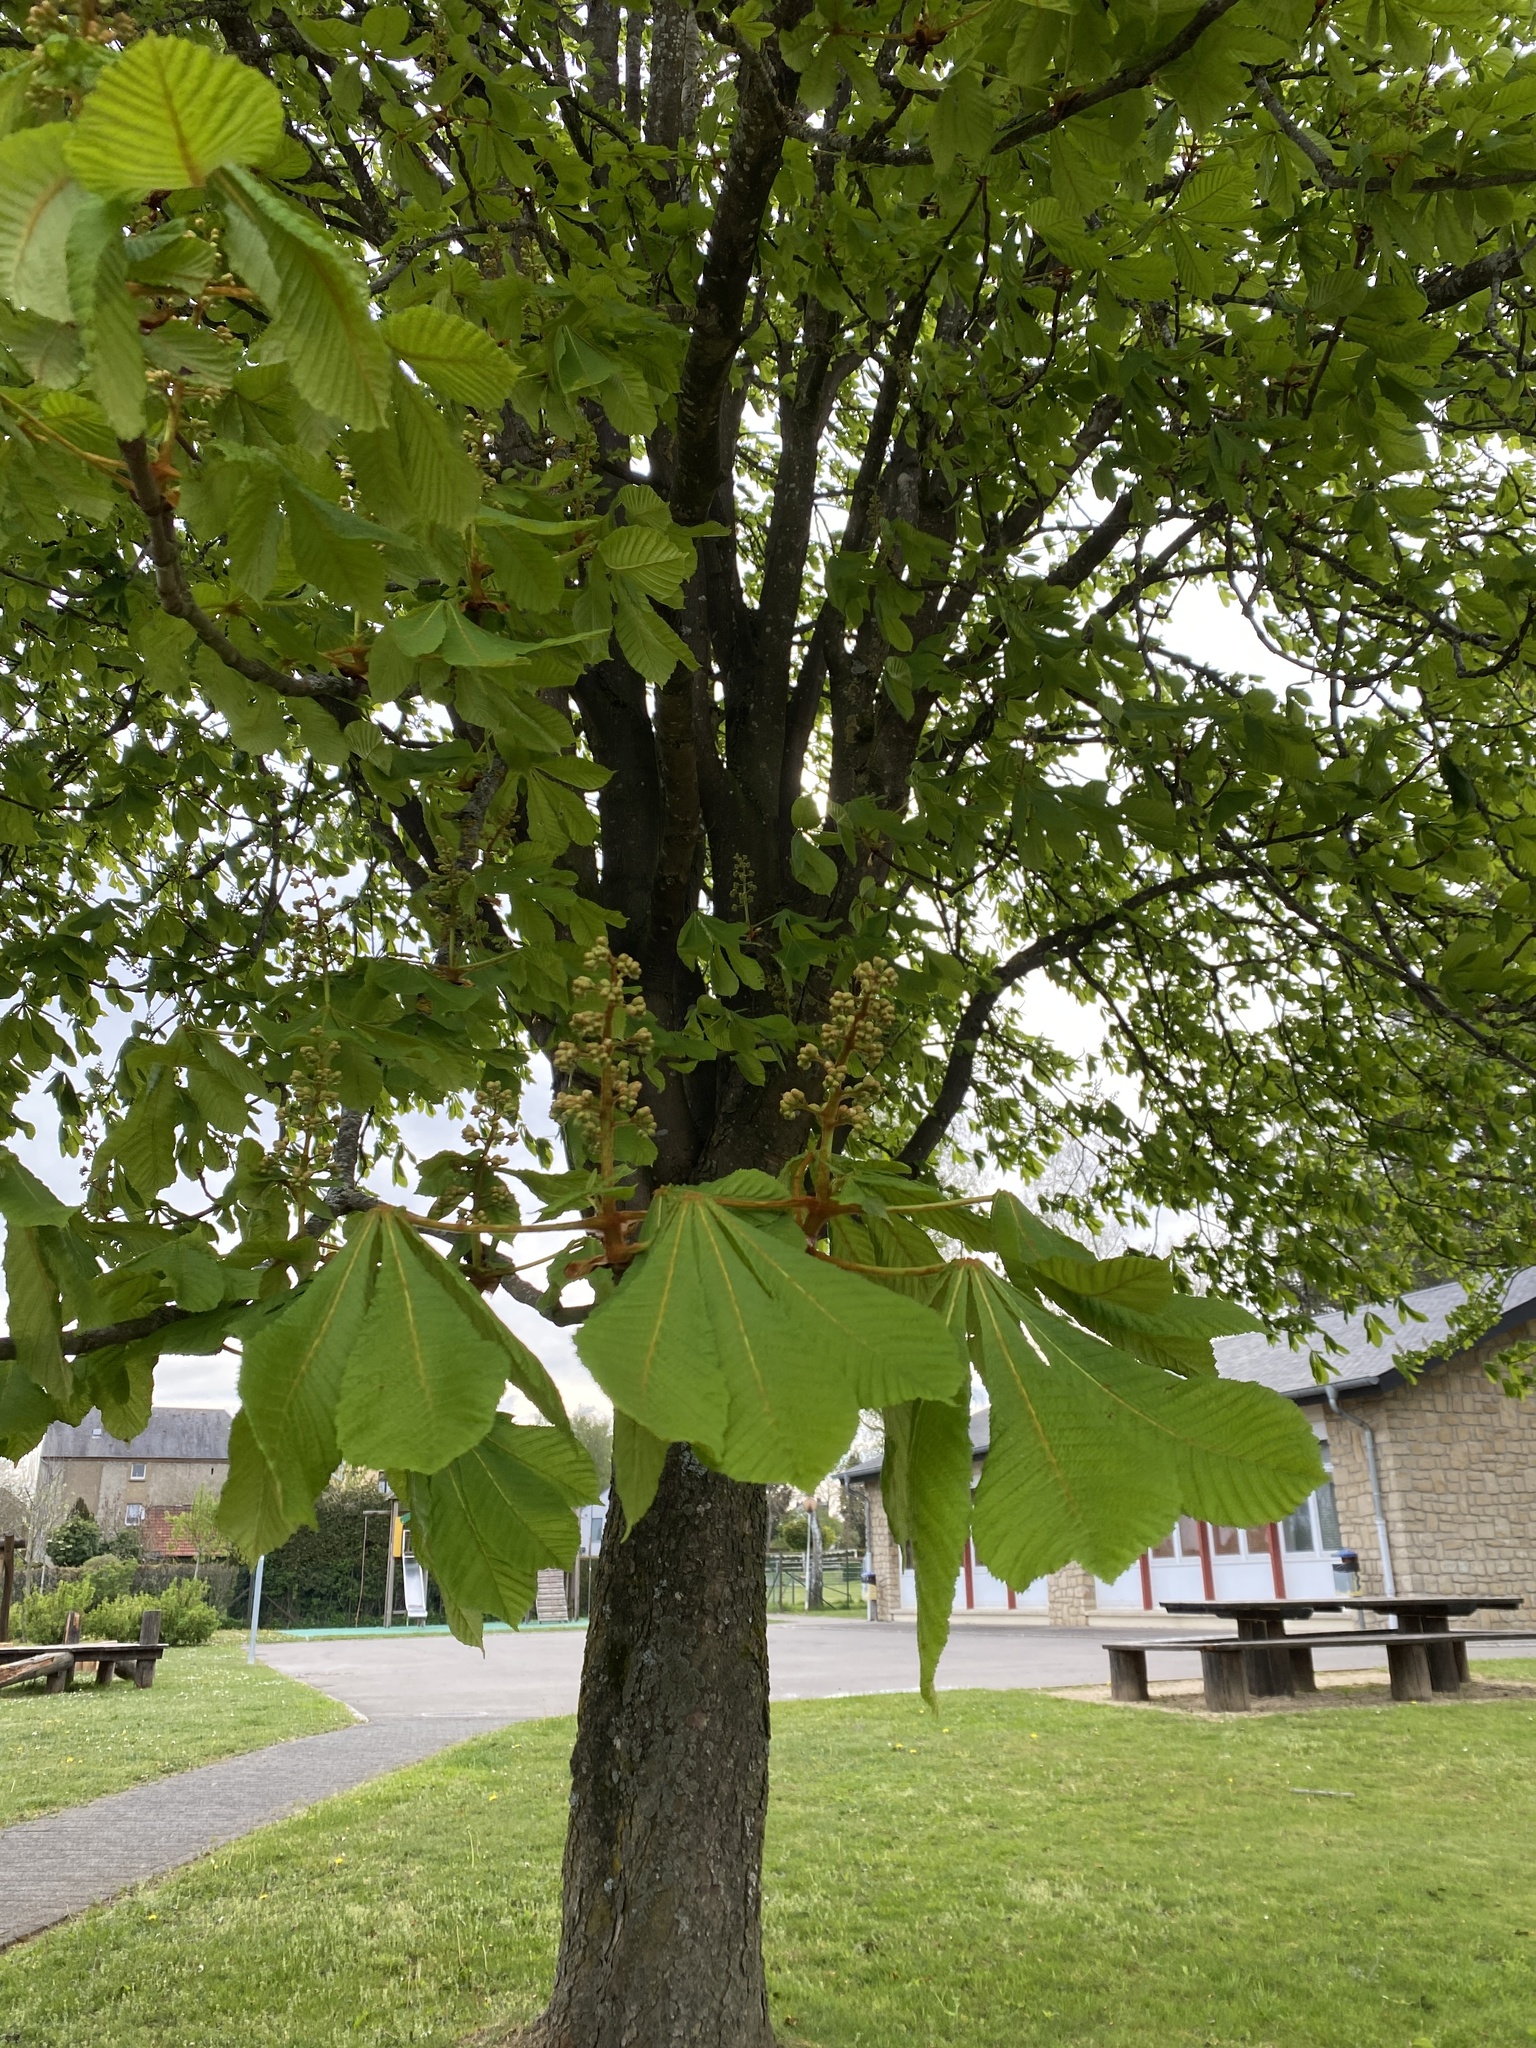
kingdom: Plantae
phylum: Tracheophyta
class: Magnoliopsida
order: Sapindales
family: Sapindaceae
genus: Aesculus
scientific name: Aesculus hippocastanum
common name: Horse-chestnut
